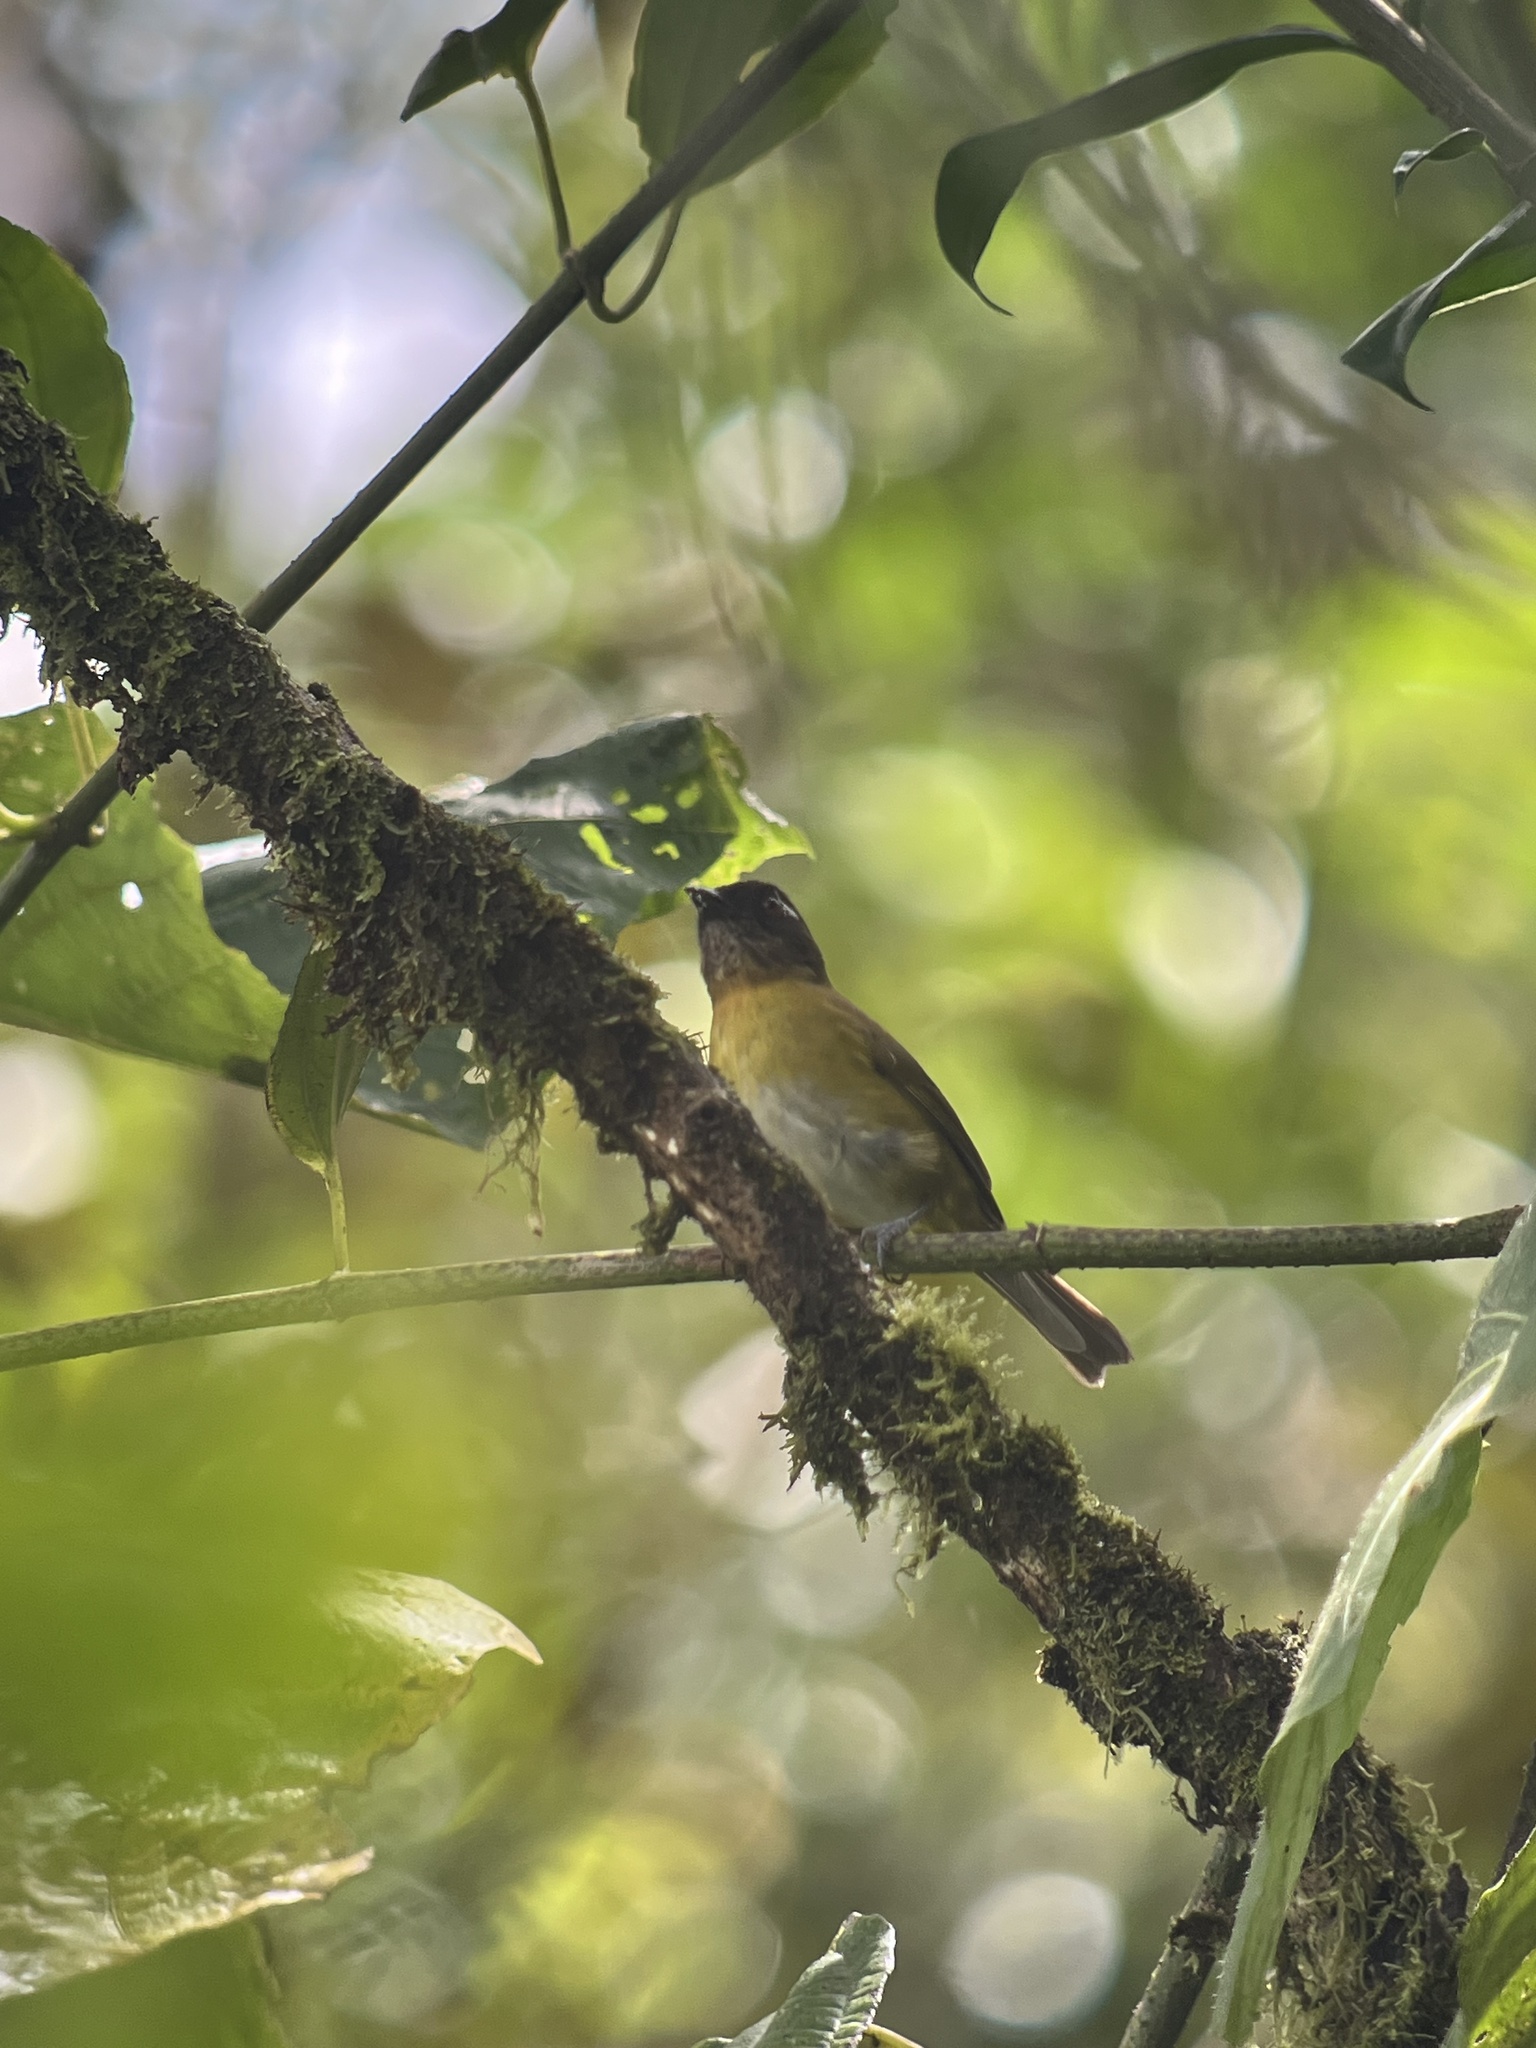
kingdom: Animalia
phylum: Chordata
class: Aves
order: Passeriformes
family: Passerellidae
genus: Chlorospingus
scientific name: Chlorospingus flavopectus
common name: Common chlorospingus
